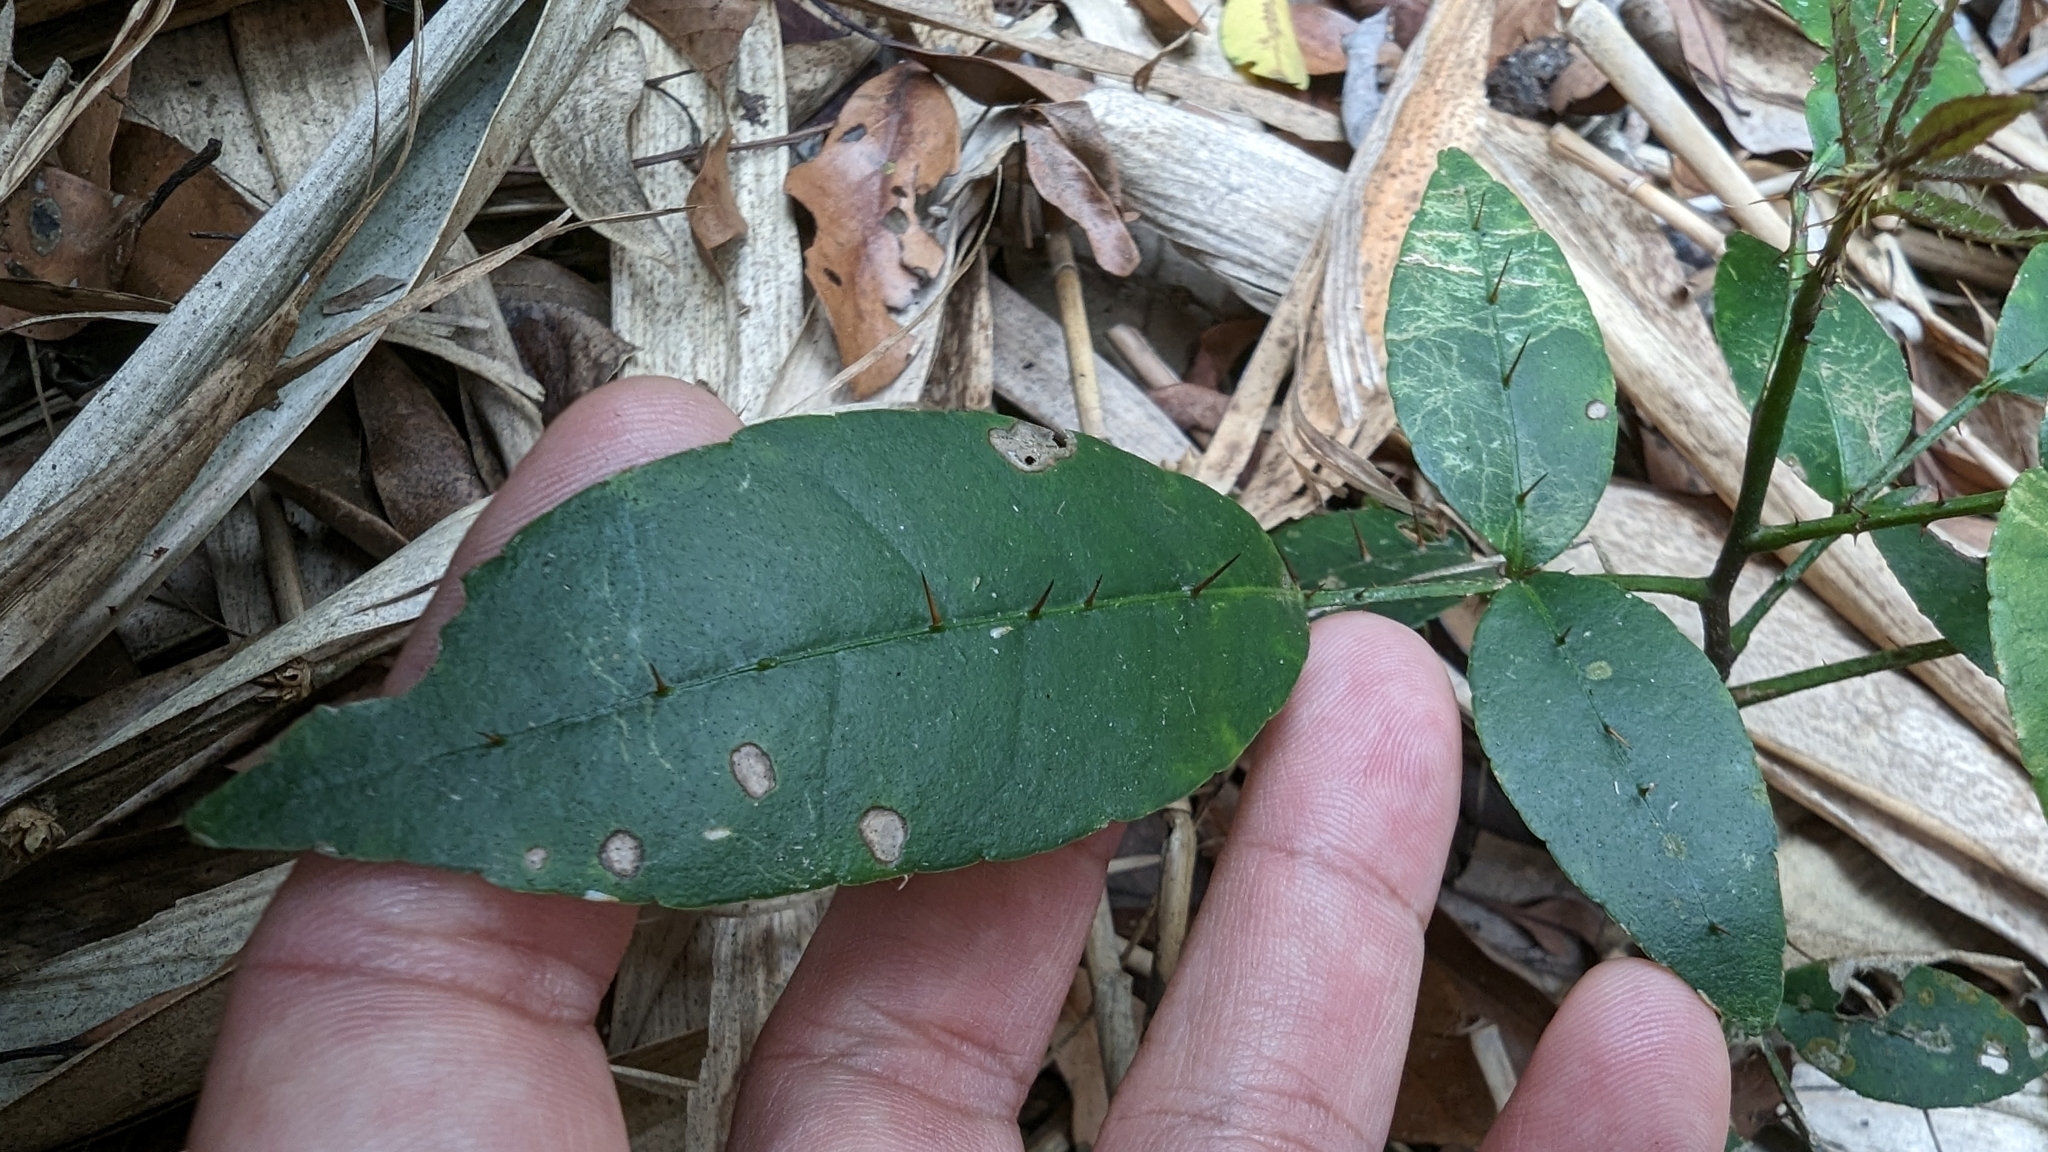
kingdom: Plantae
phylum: Tracheophyta
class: Magnoliopsida
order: Sapindales
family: Rutaceae
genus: Zanthoxylum
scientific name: Zanthoxylum nitidum
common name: Shiny-leaf prickly-ash
